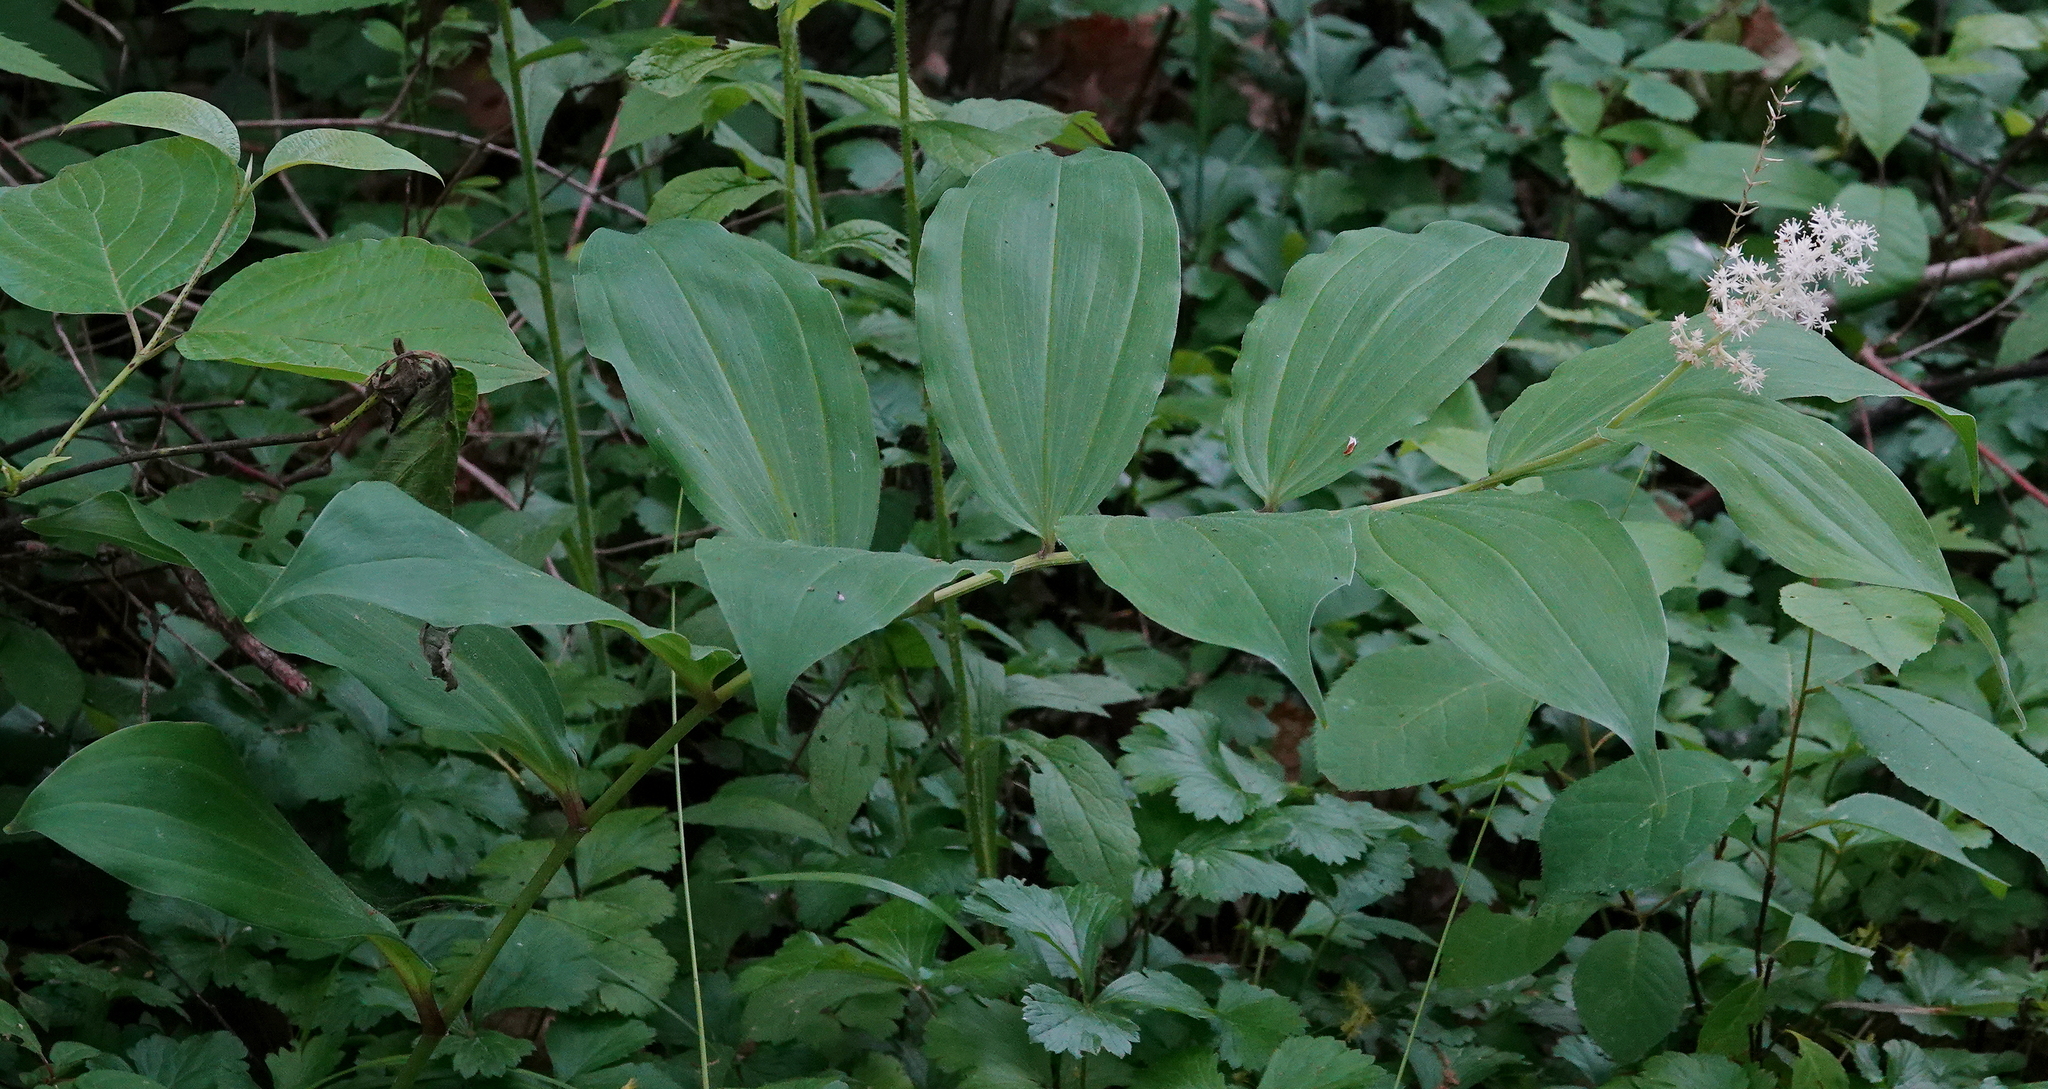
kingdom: Plantae
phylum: Tracheophyta
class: Liliopsida
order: Asparagales
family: Asparagaceae
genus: Maianthemum
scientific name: Maianthemum racemosum
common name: False spikenard
